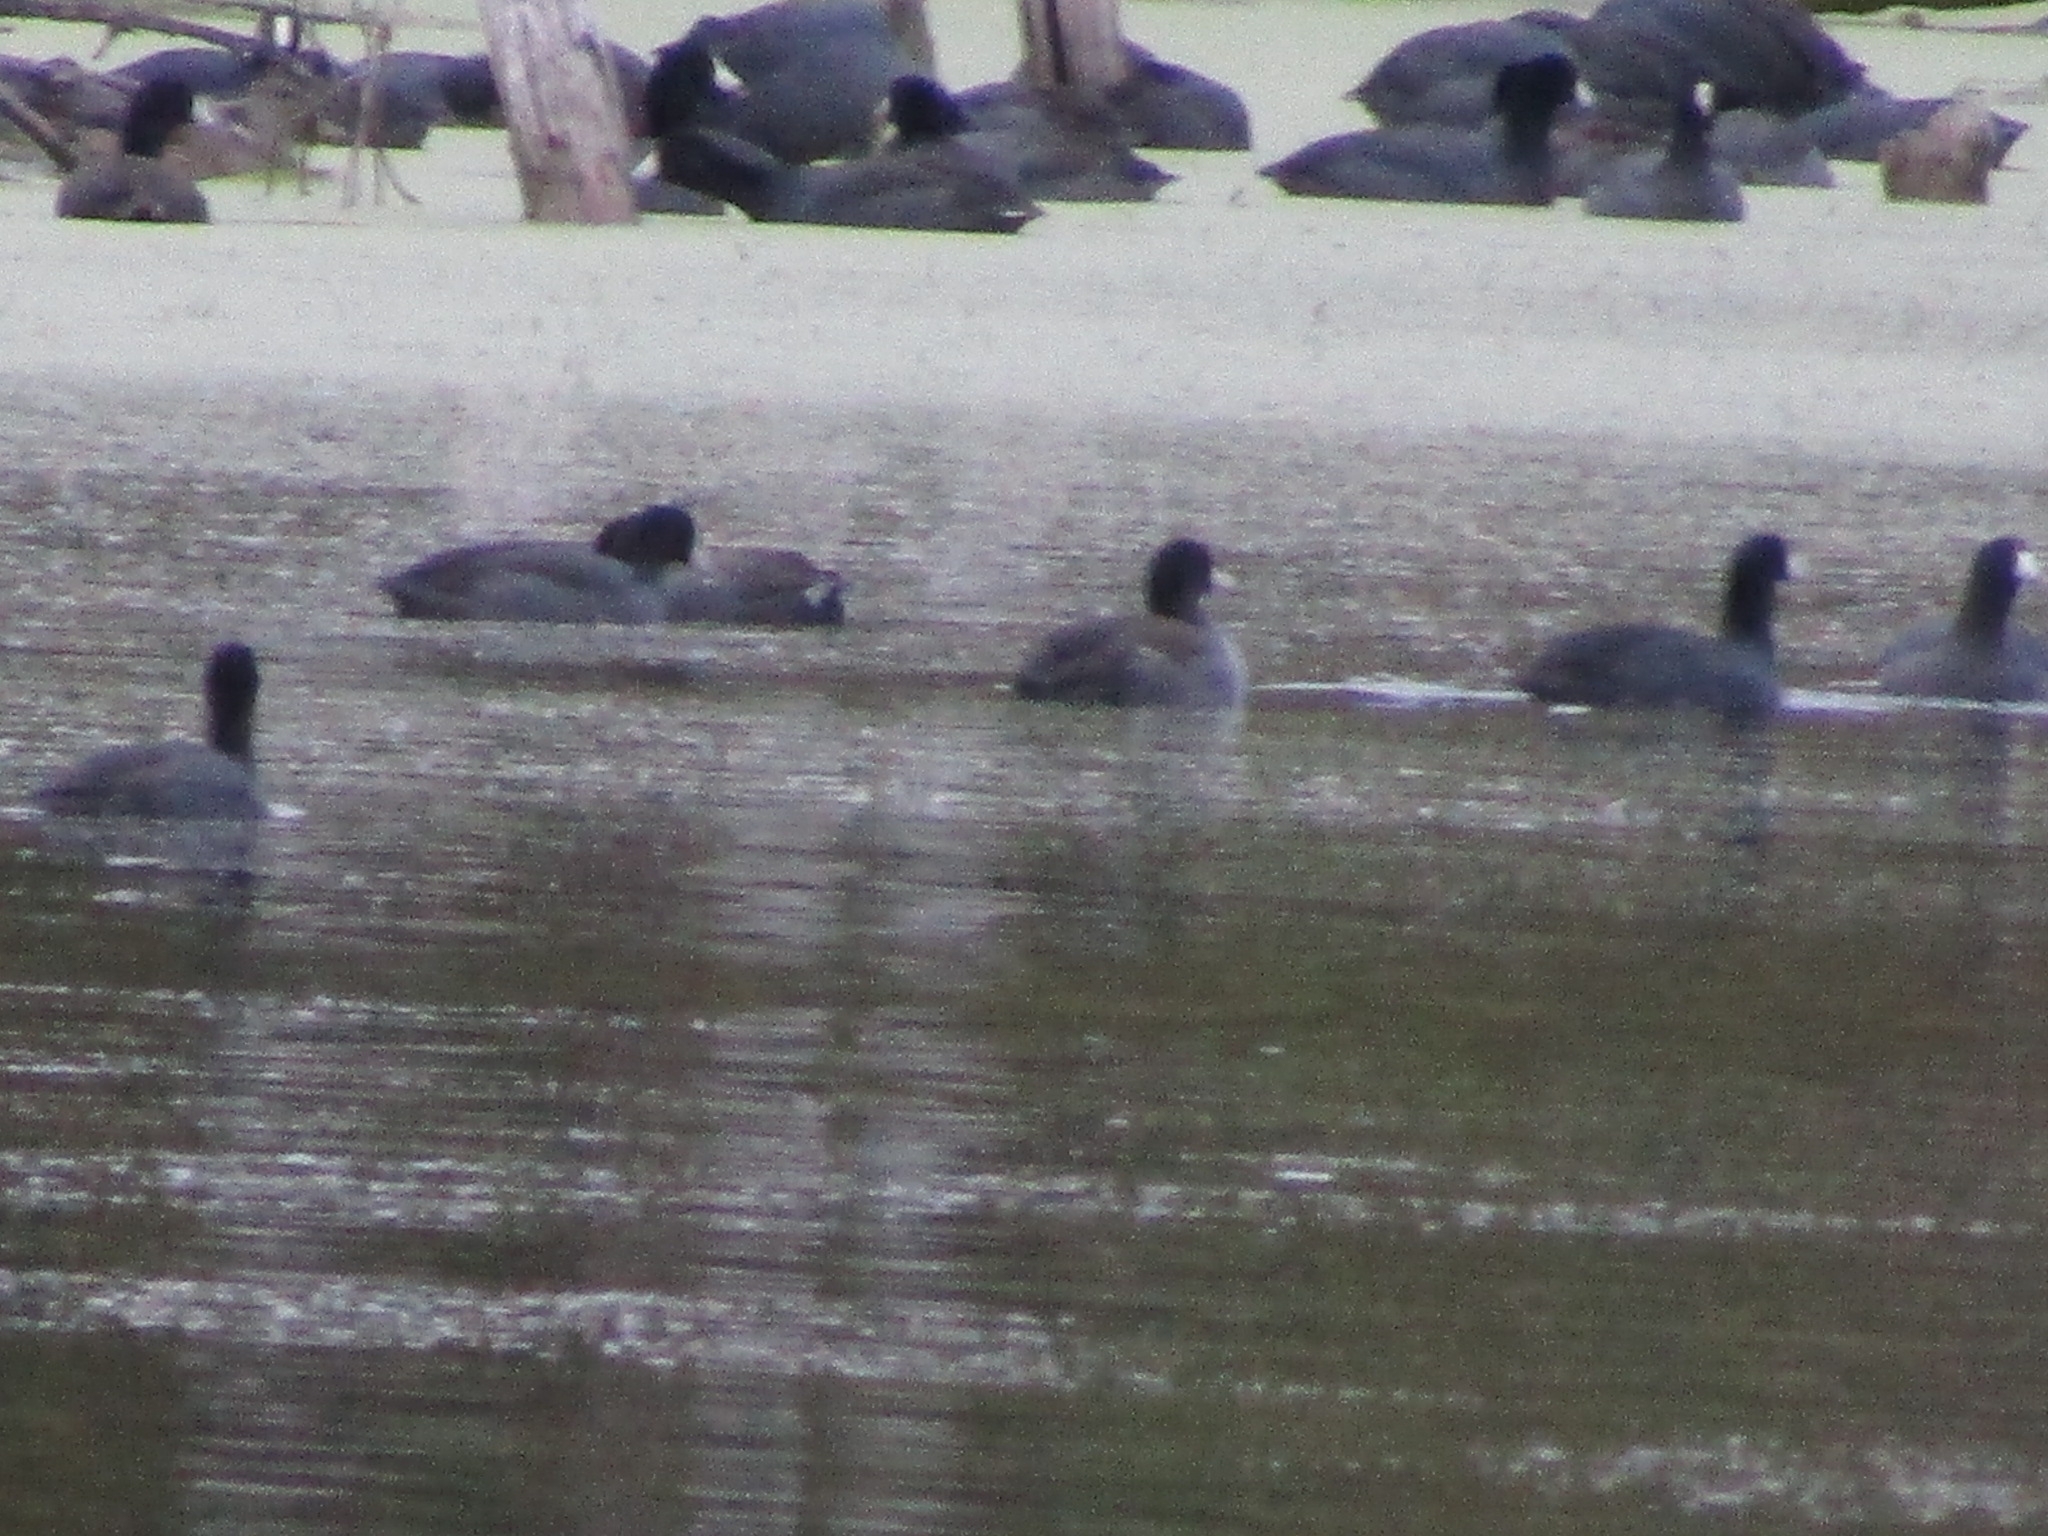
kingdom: Animalia
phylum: Chordata
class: Aves
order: Gruiformes
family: Rallidae
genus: Fulica
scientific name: Fulica americana
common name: American coot
